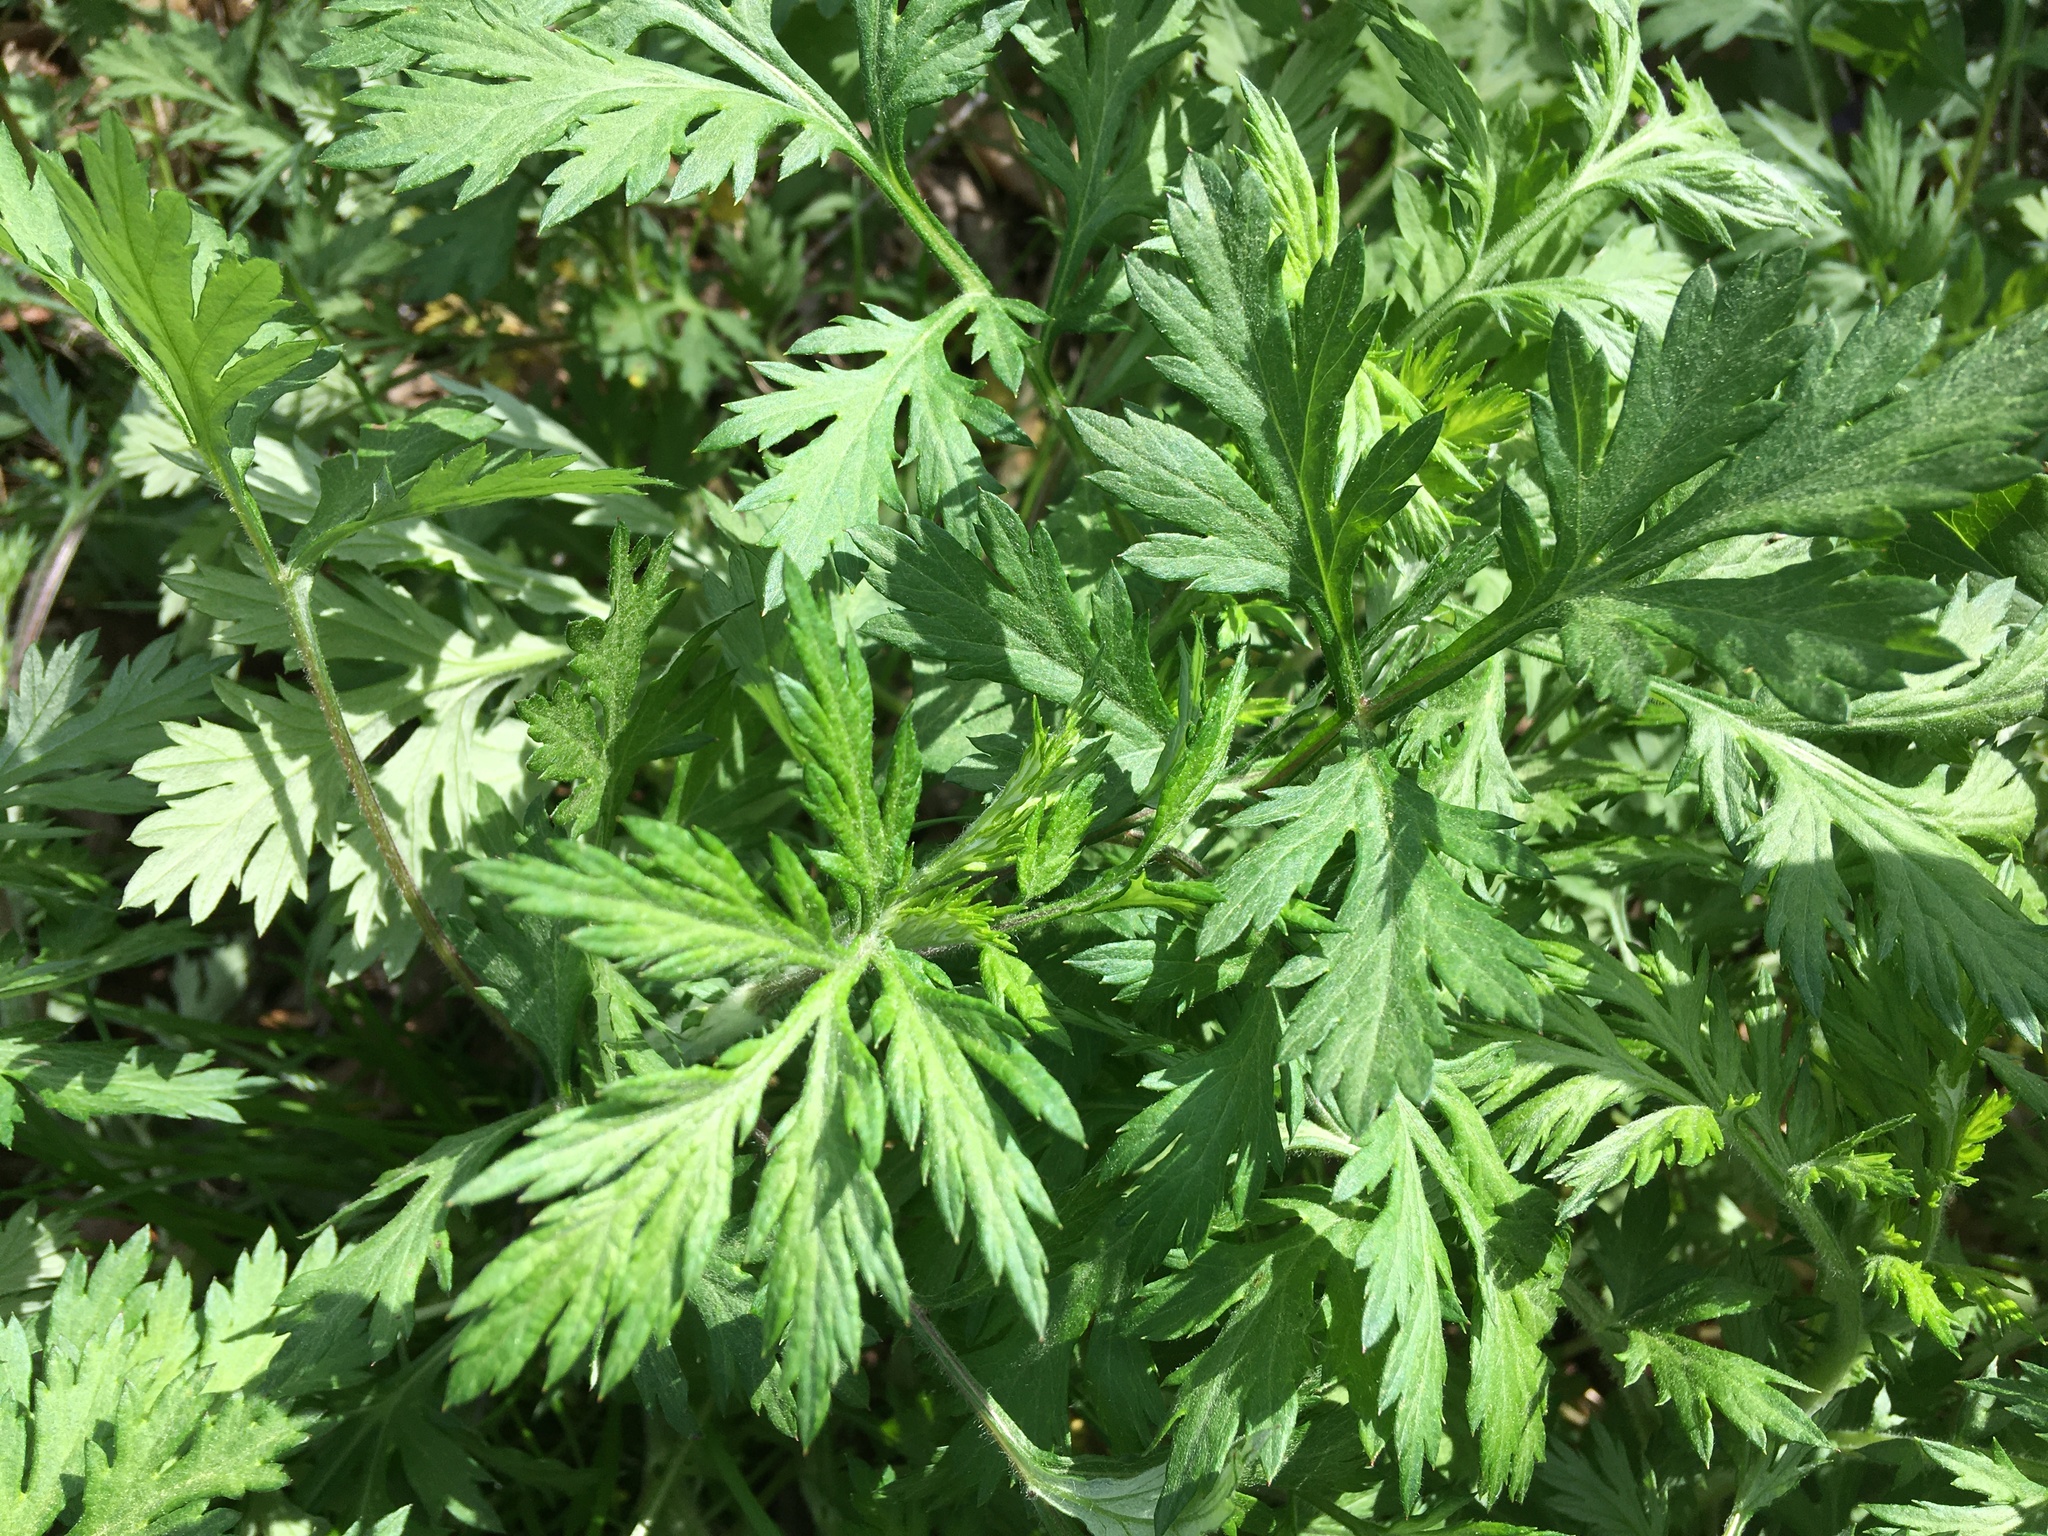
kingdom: Plantae
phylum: Tracheophyta
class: Magnoliopsida
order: Asterales
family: Asteraceae
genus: Artemisia
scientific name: Artemisia vulgaris
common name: Mugwort
